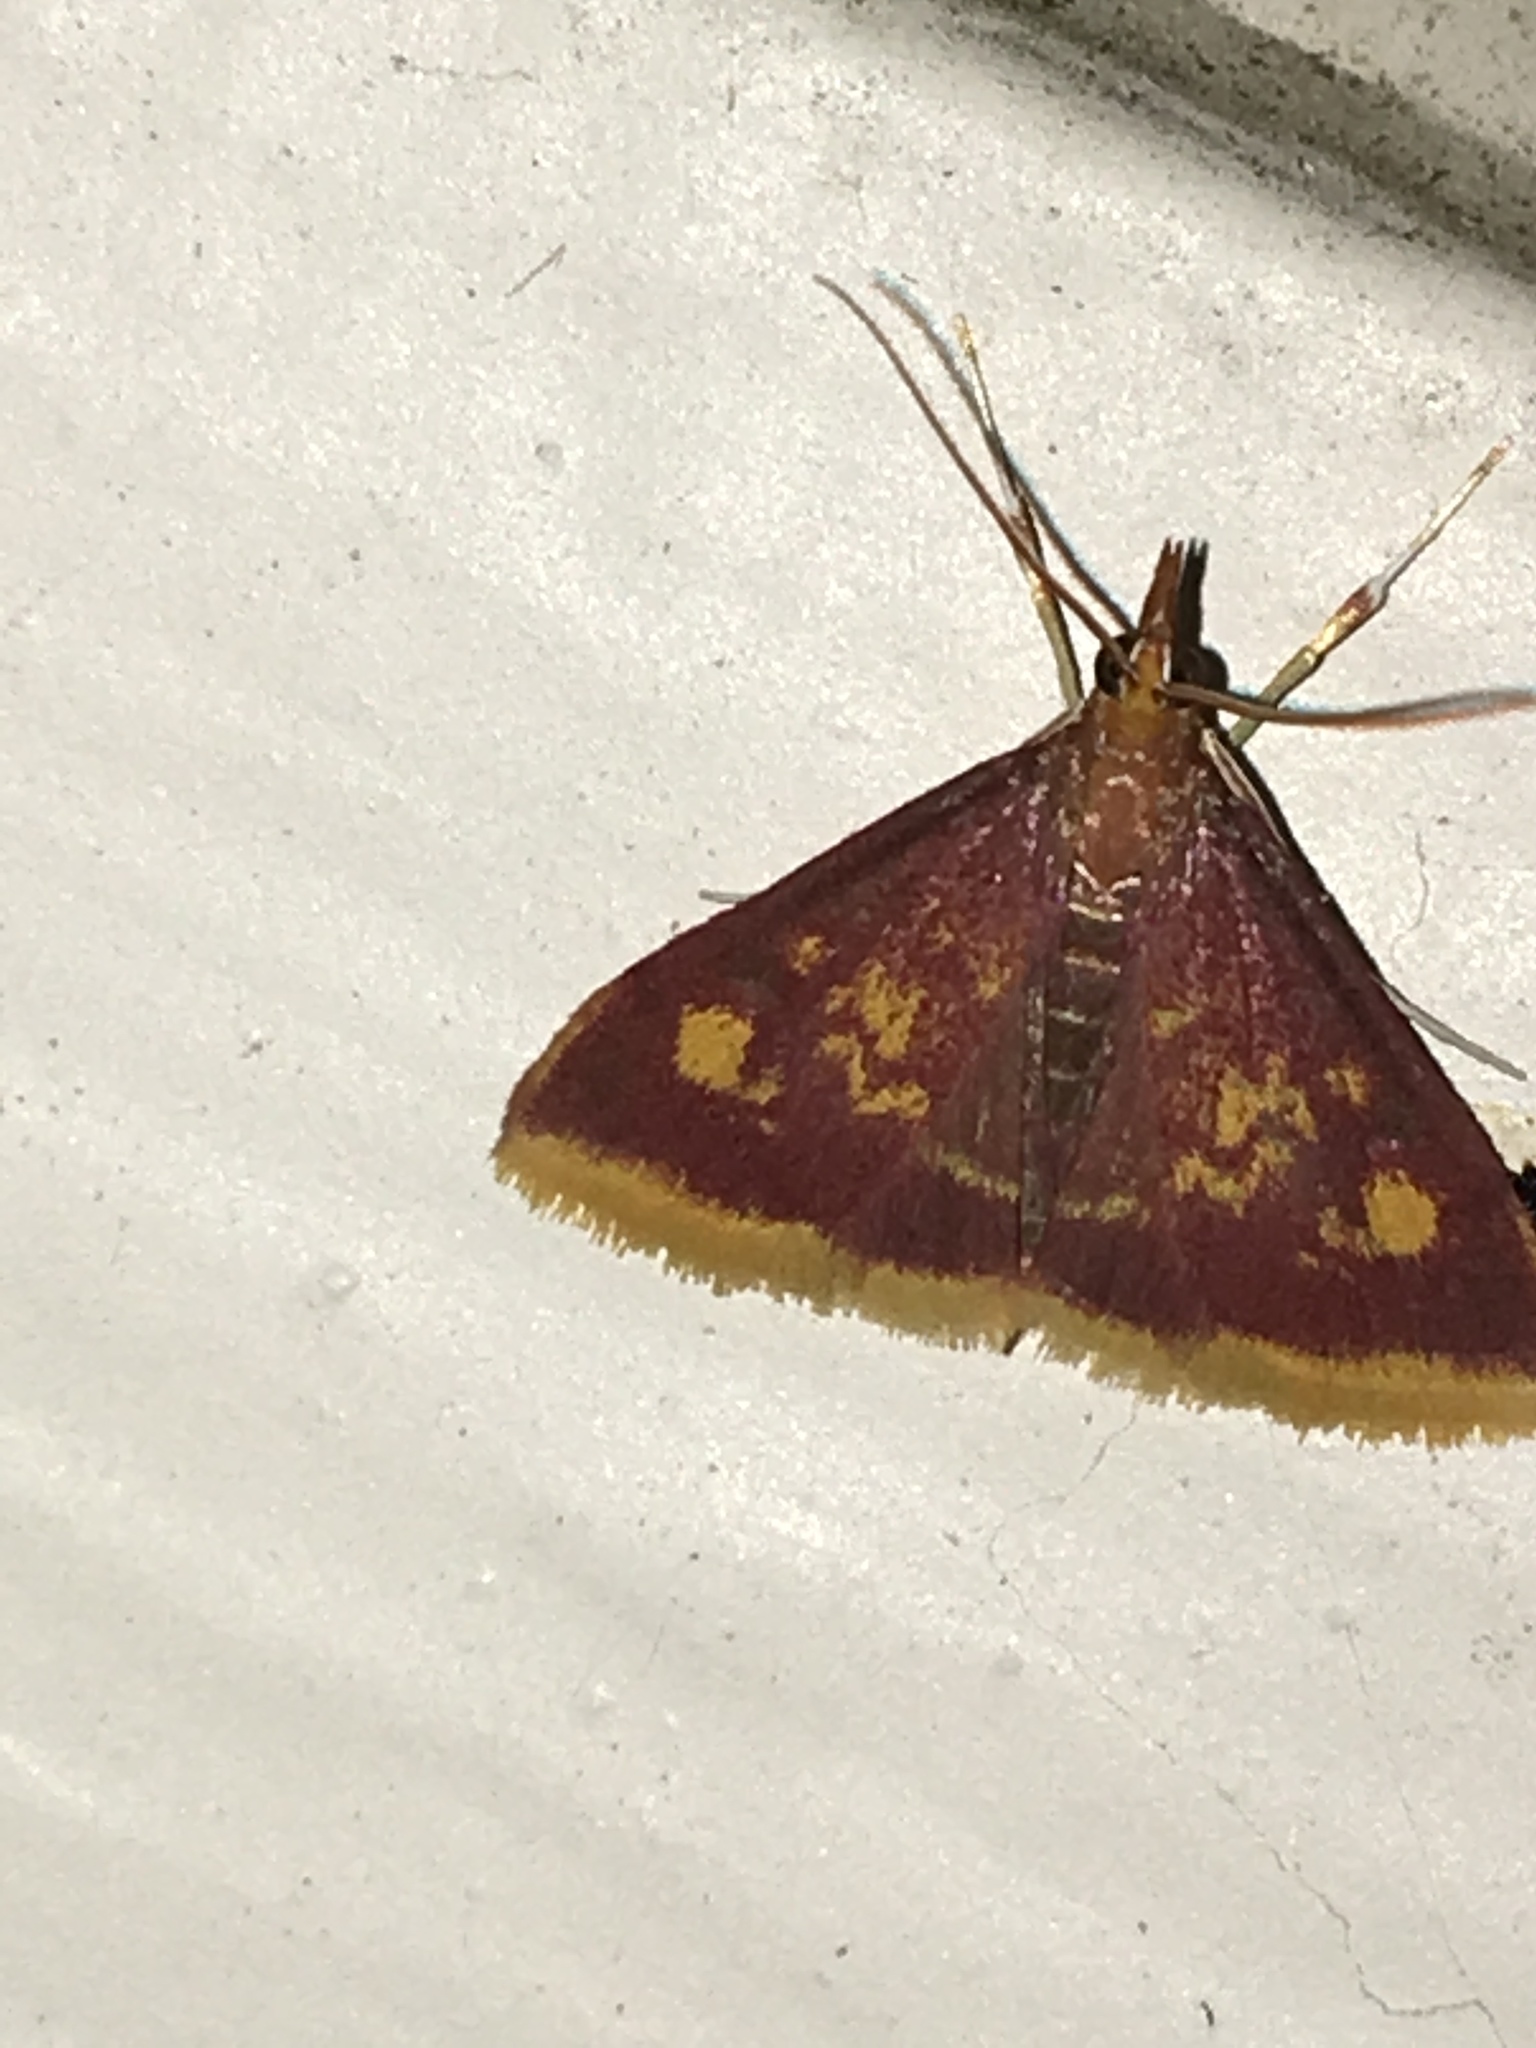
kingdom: Animalia
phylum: Arthropoda
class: Insecta
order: Lepidoptera
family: Crambidae
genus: Pyrausta
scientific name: Pyrausta acrionalis
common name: Mint-loving pyrausta moth
